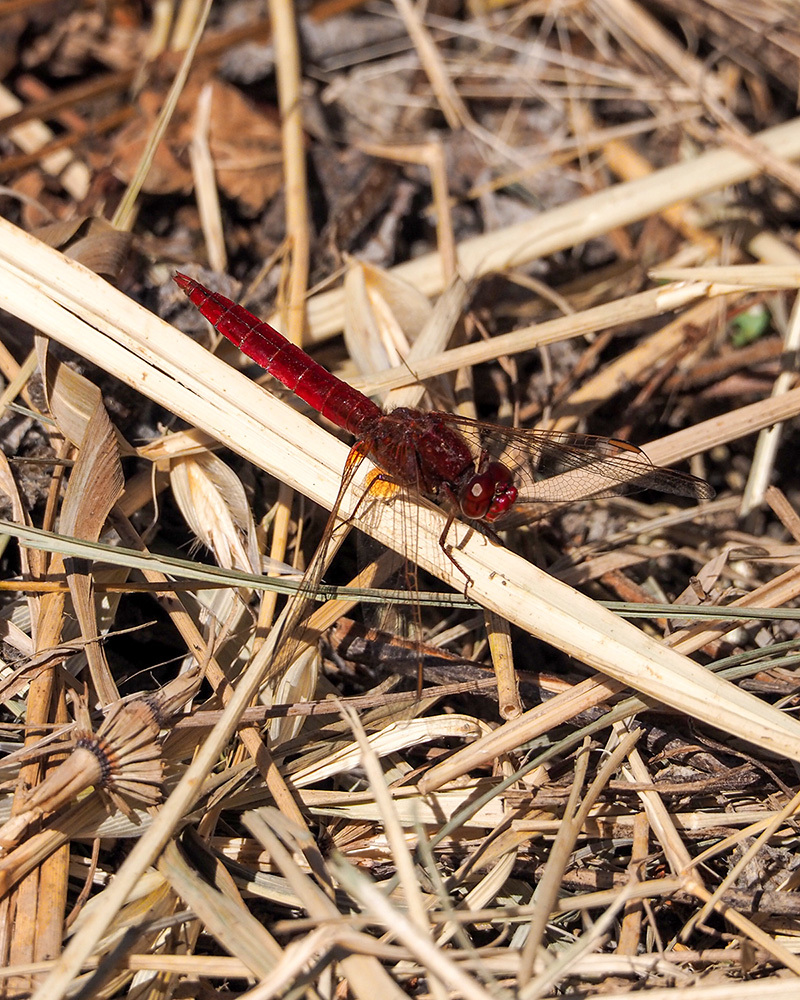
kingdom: Animalia
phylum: Arthropoda
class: Insecta
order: Odonata
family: Libellulidae
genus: Crocothemis
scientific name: Crocothemis erythraea
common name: Scarlet dragonfly
